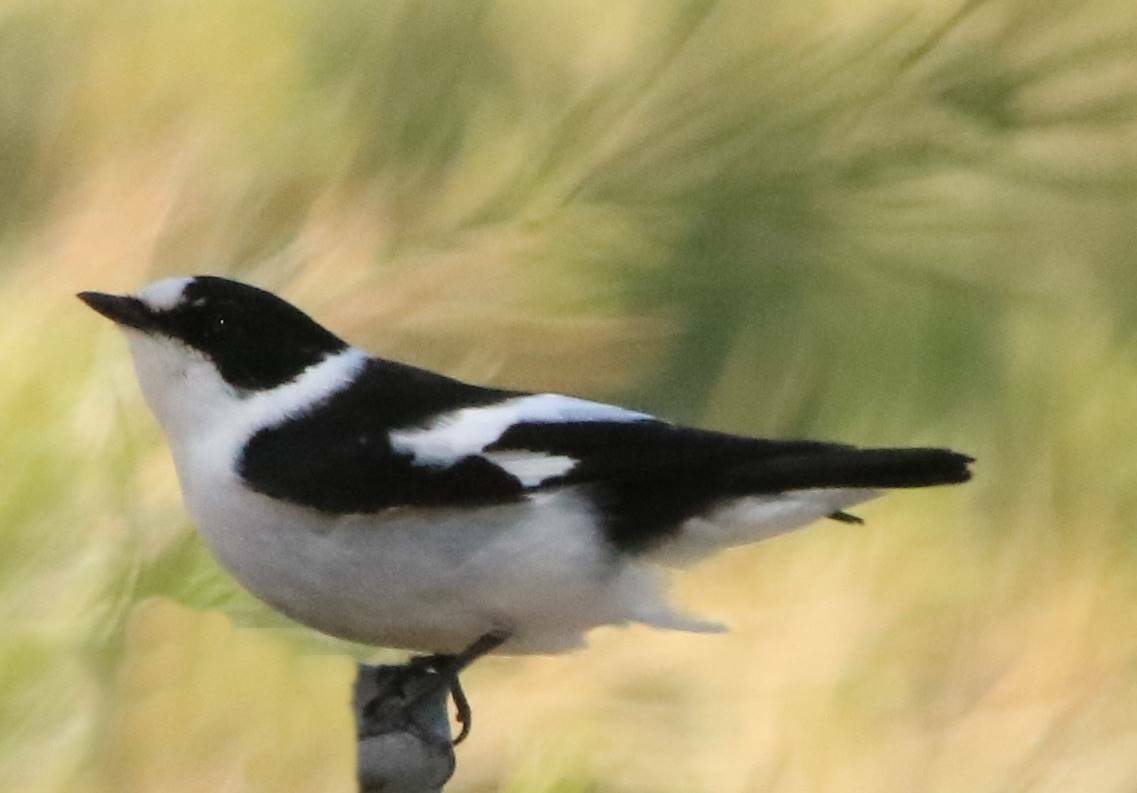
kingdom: Animalia
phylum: Chordata
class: Aves
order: Passeriformes
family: Muscicapidae
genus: Ficedula
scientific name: Ficedula albicollis
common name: Collared flycatcher
